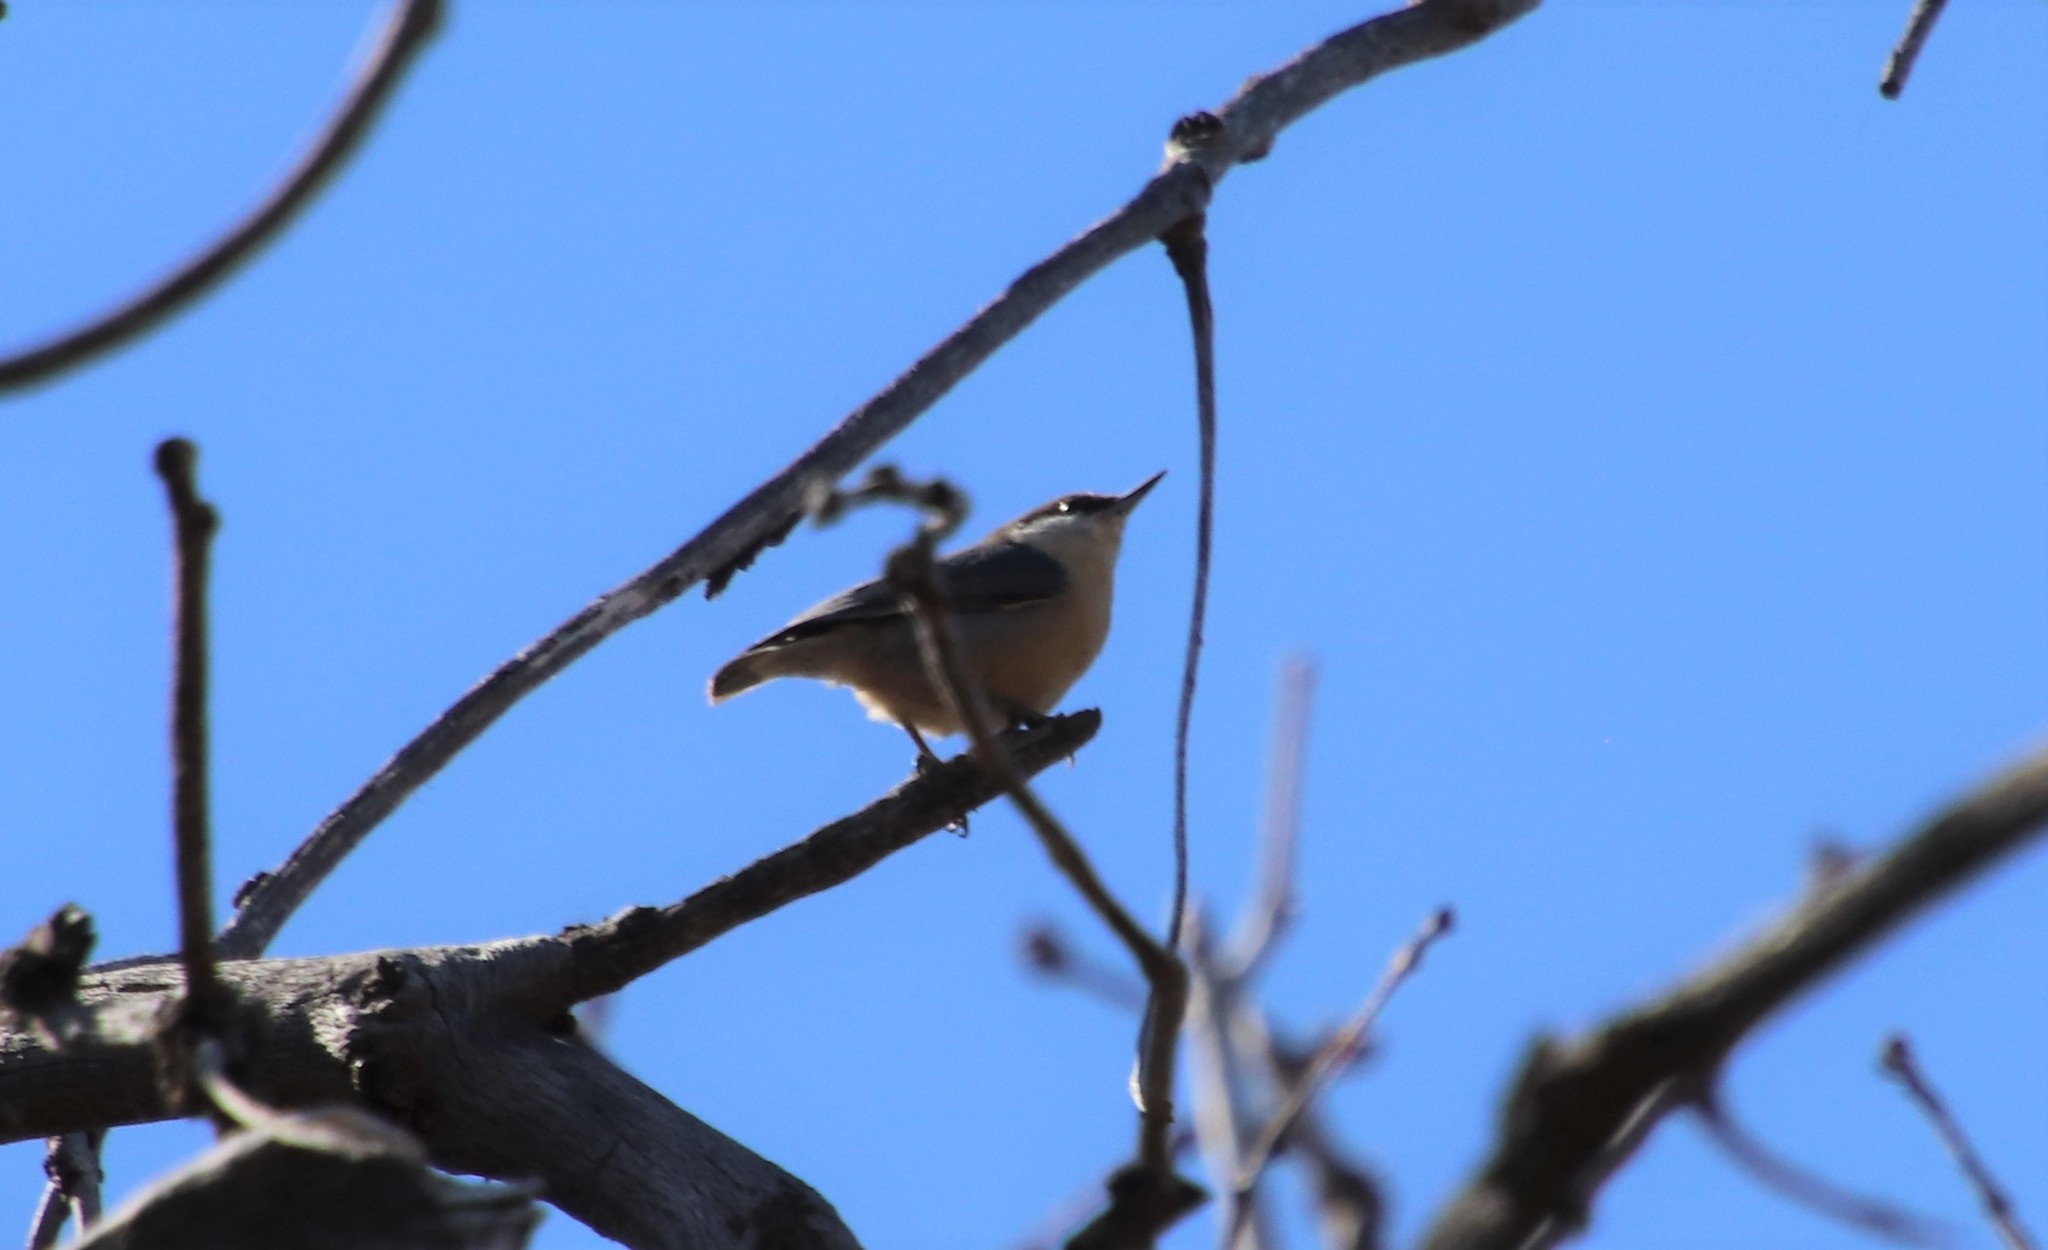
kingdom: Animalia
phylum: Chordata
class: Aves
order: Passeriformes
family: Sittidae
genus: Sitta
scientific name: Sitta pygmaea
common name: Pygmy nuthatch
